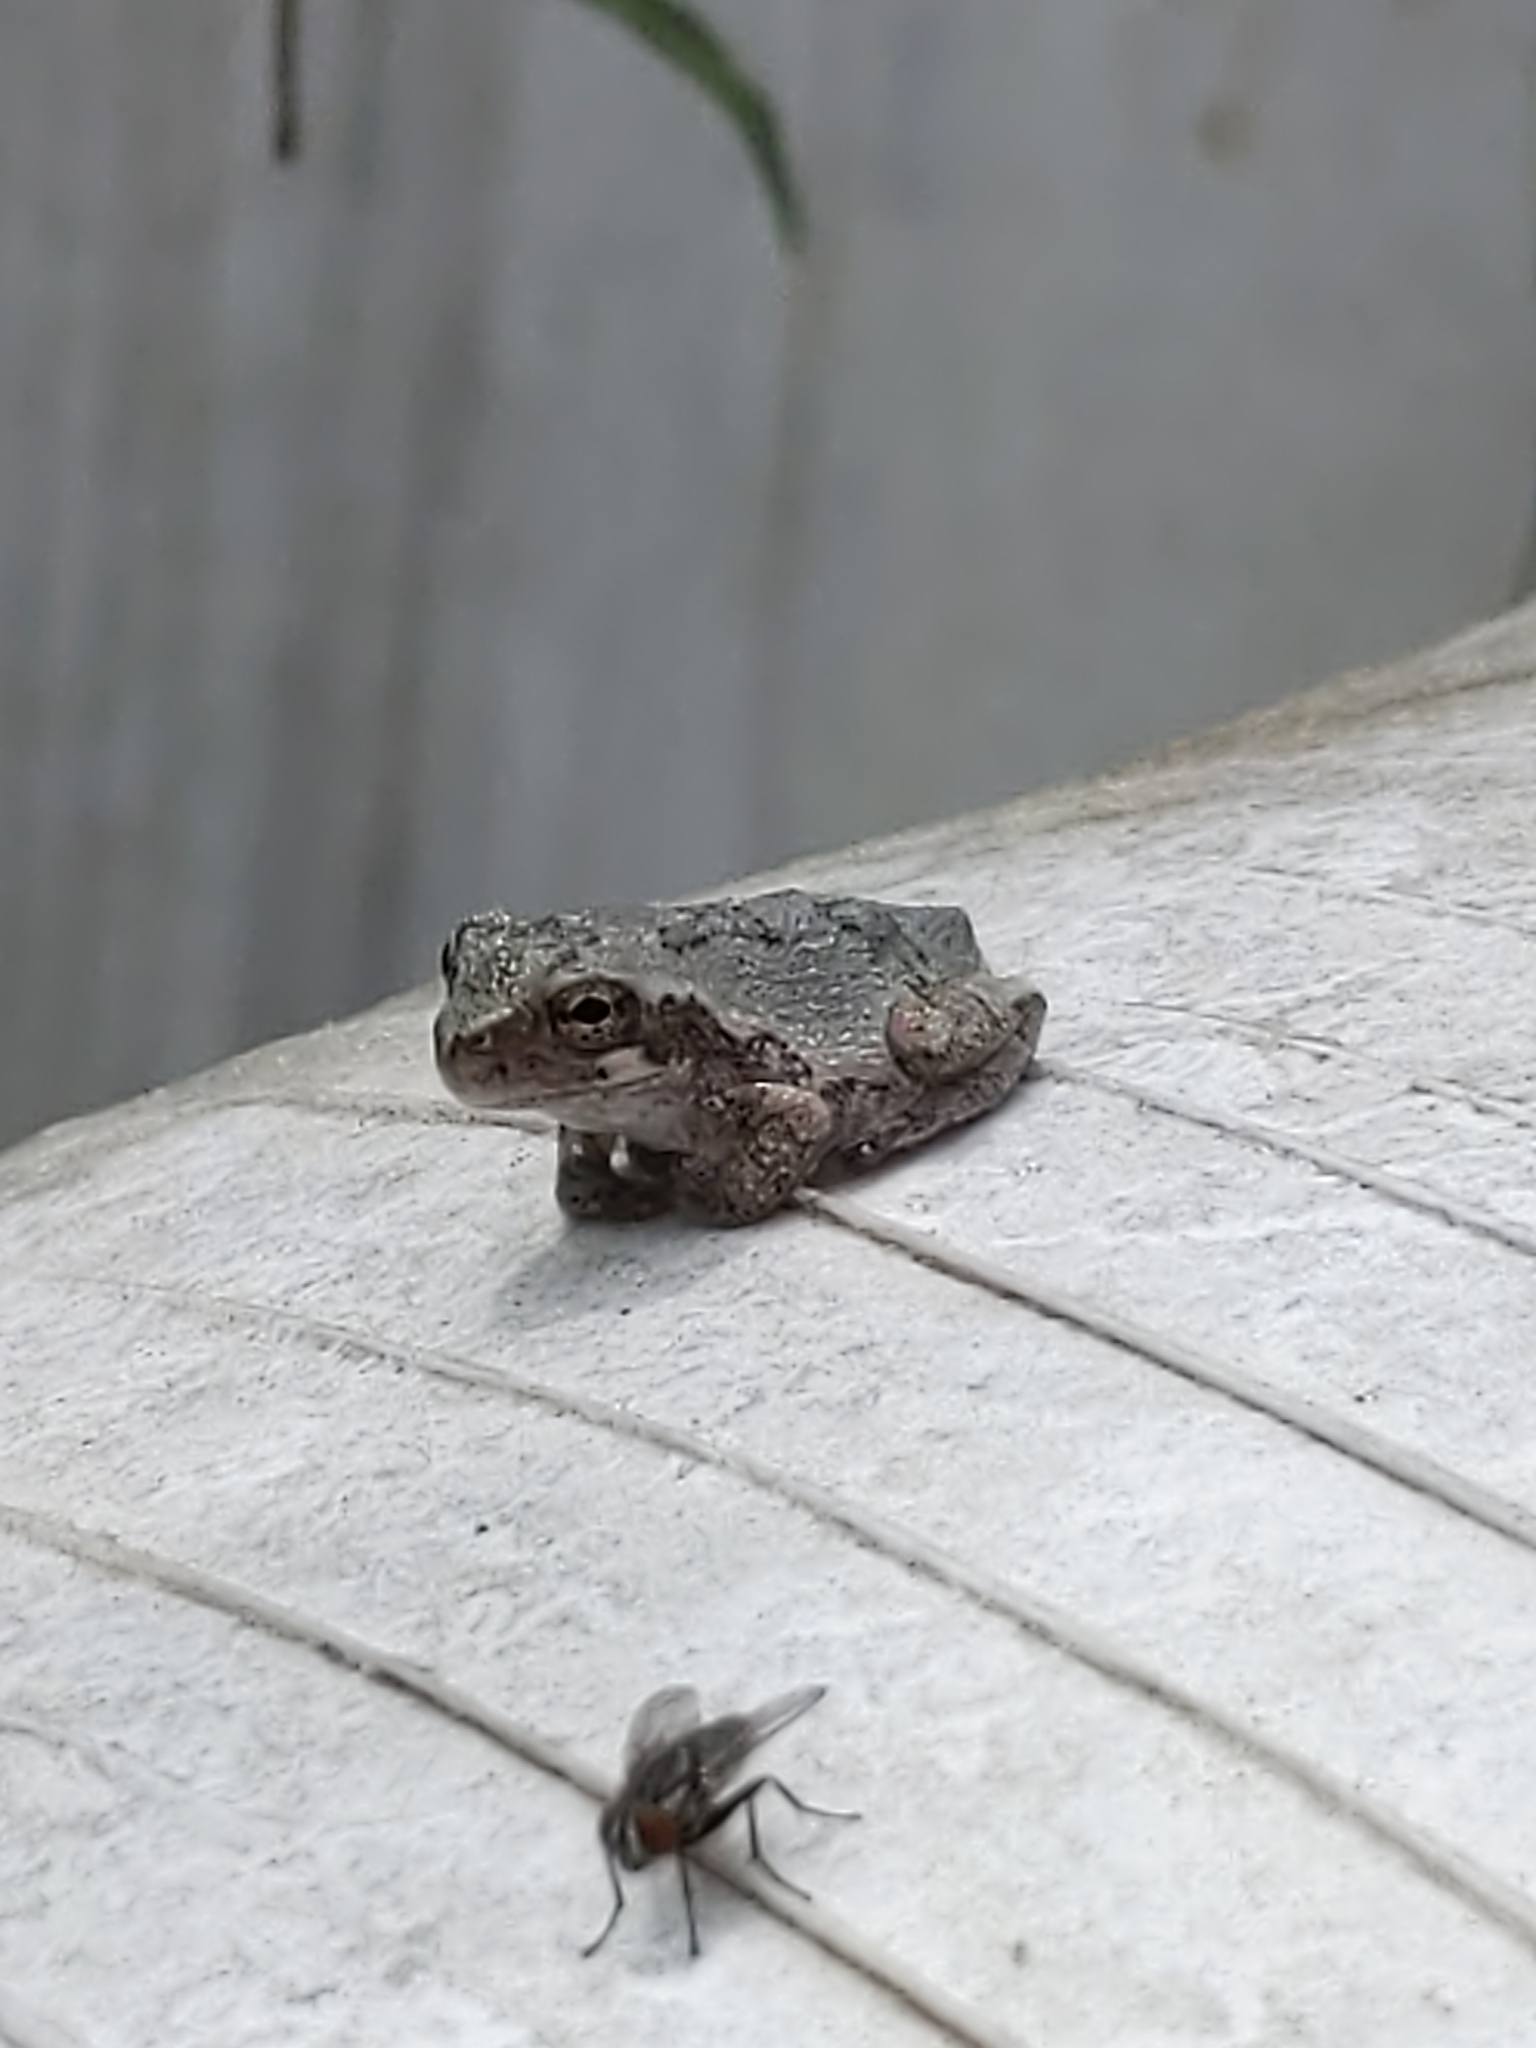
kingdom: Animalia
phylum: Chordata
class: Amphibia
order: Anura
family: Hylidae
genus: Dryophytes
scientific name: Dryophytes versicolor
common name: Gray treefrog
